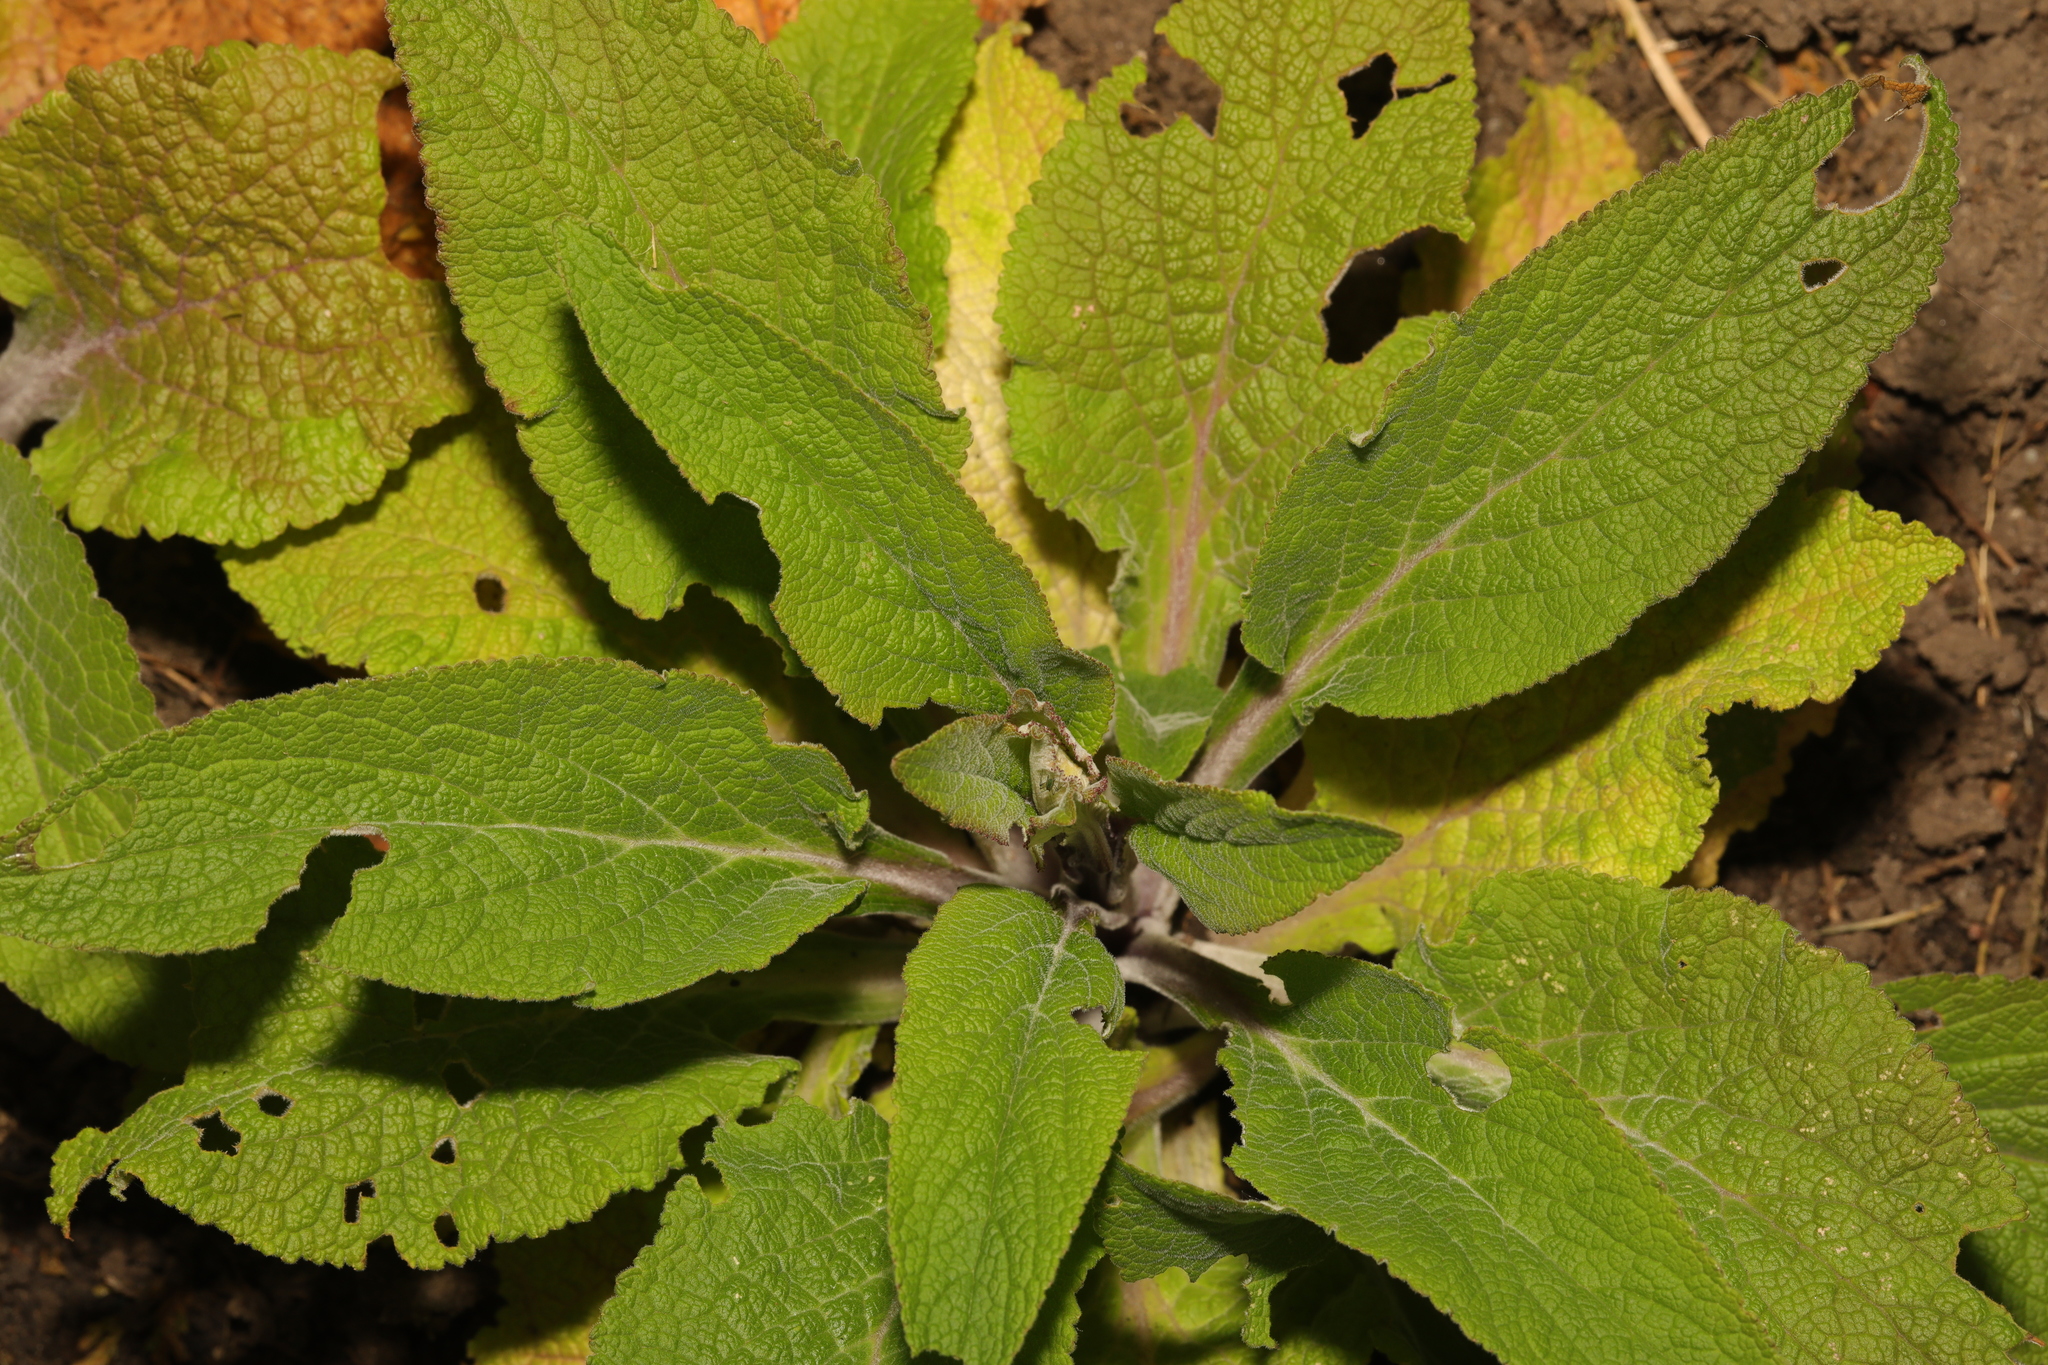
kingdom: Plantae
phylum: Tracheophyta
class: Magnoliopsida
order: Lamiales
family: Plantaginaceae
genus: Digitalis
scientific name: Digitalis purpurea
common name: Foxglove
